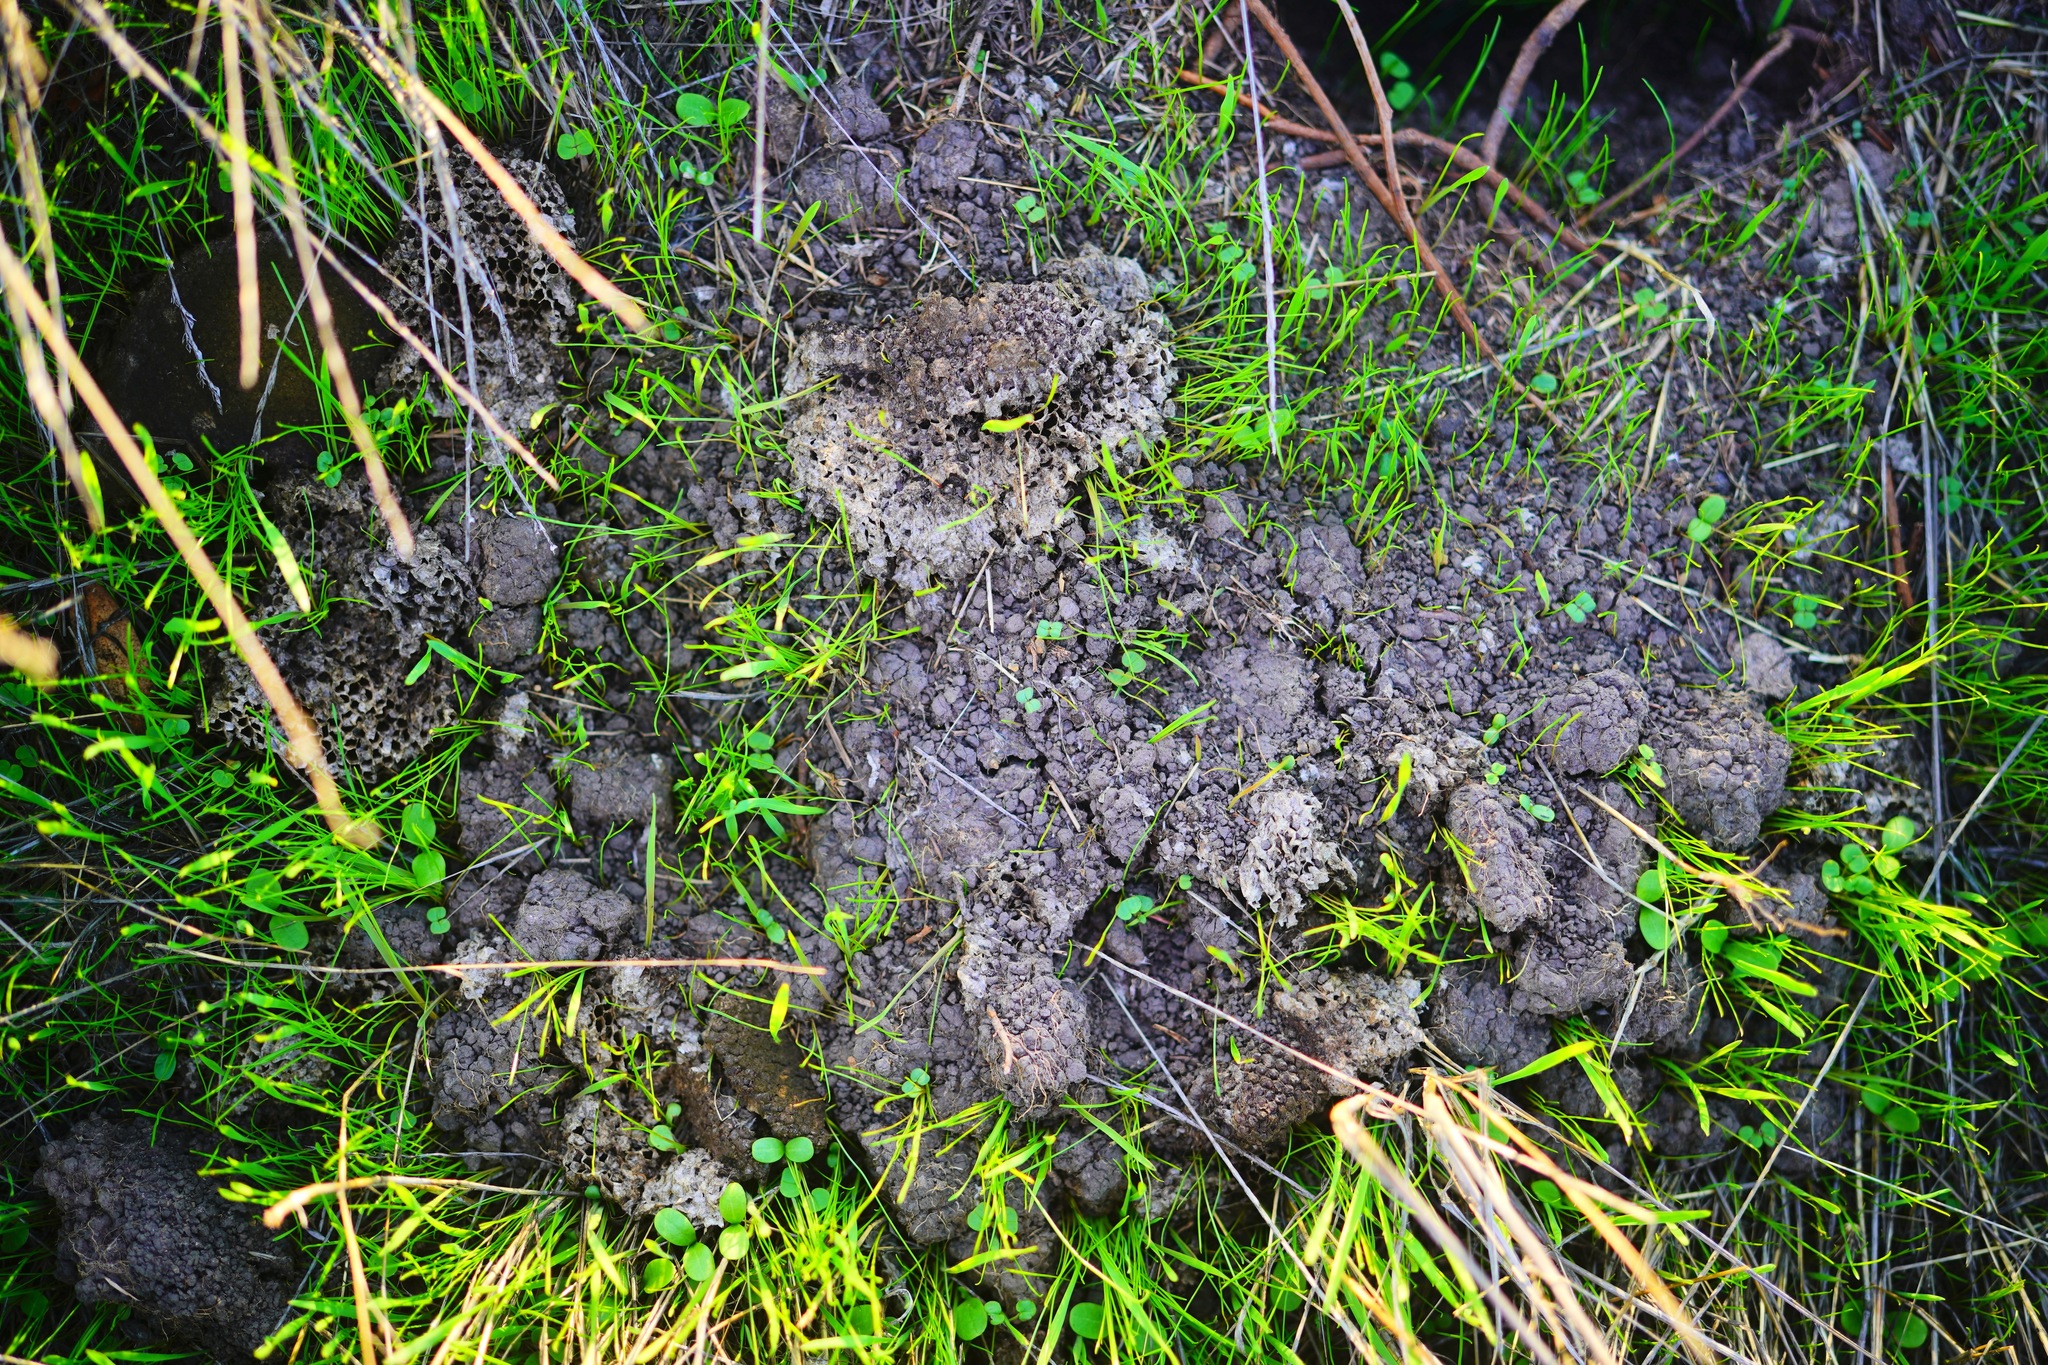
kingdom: Animalia
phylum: Arthropoda
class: Insecta
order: Hymenoptera
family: Vespidae
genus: Vespula
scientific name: Vespula
